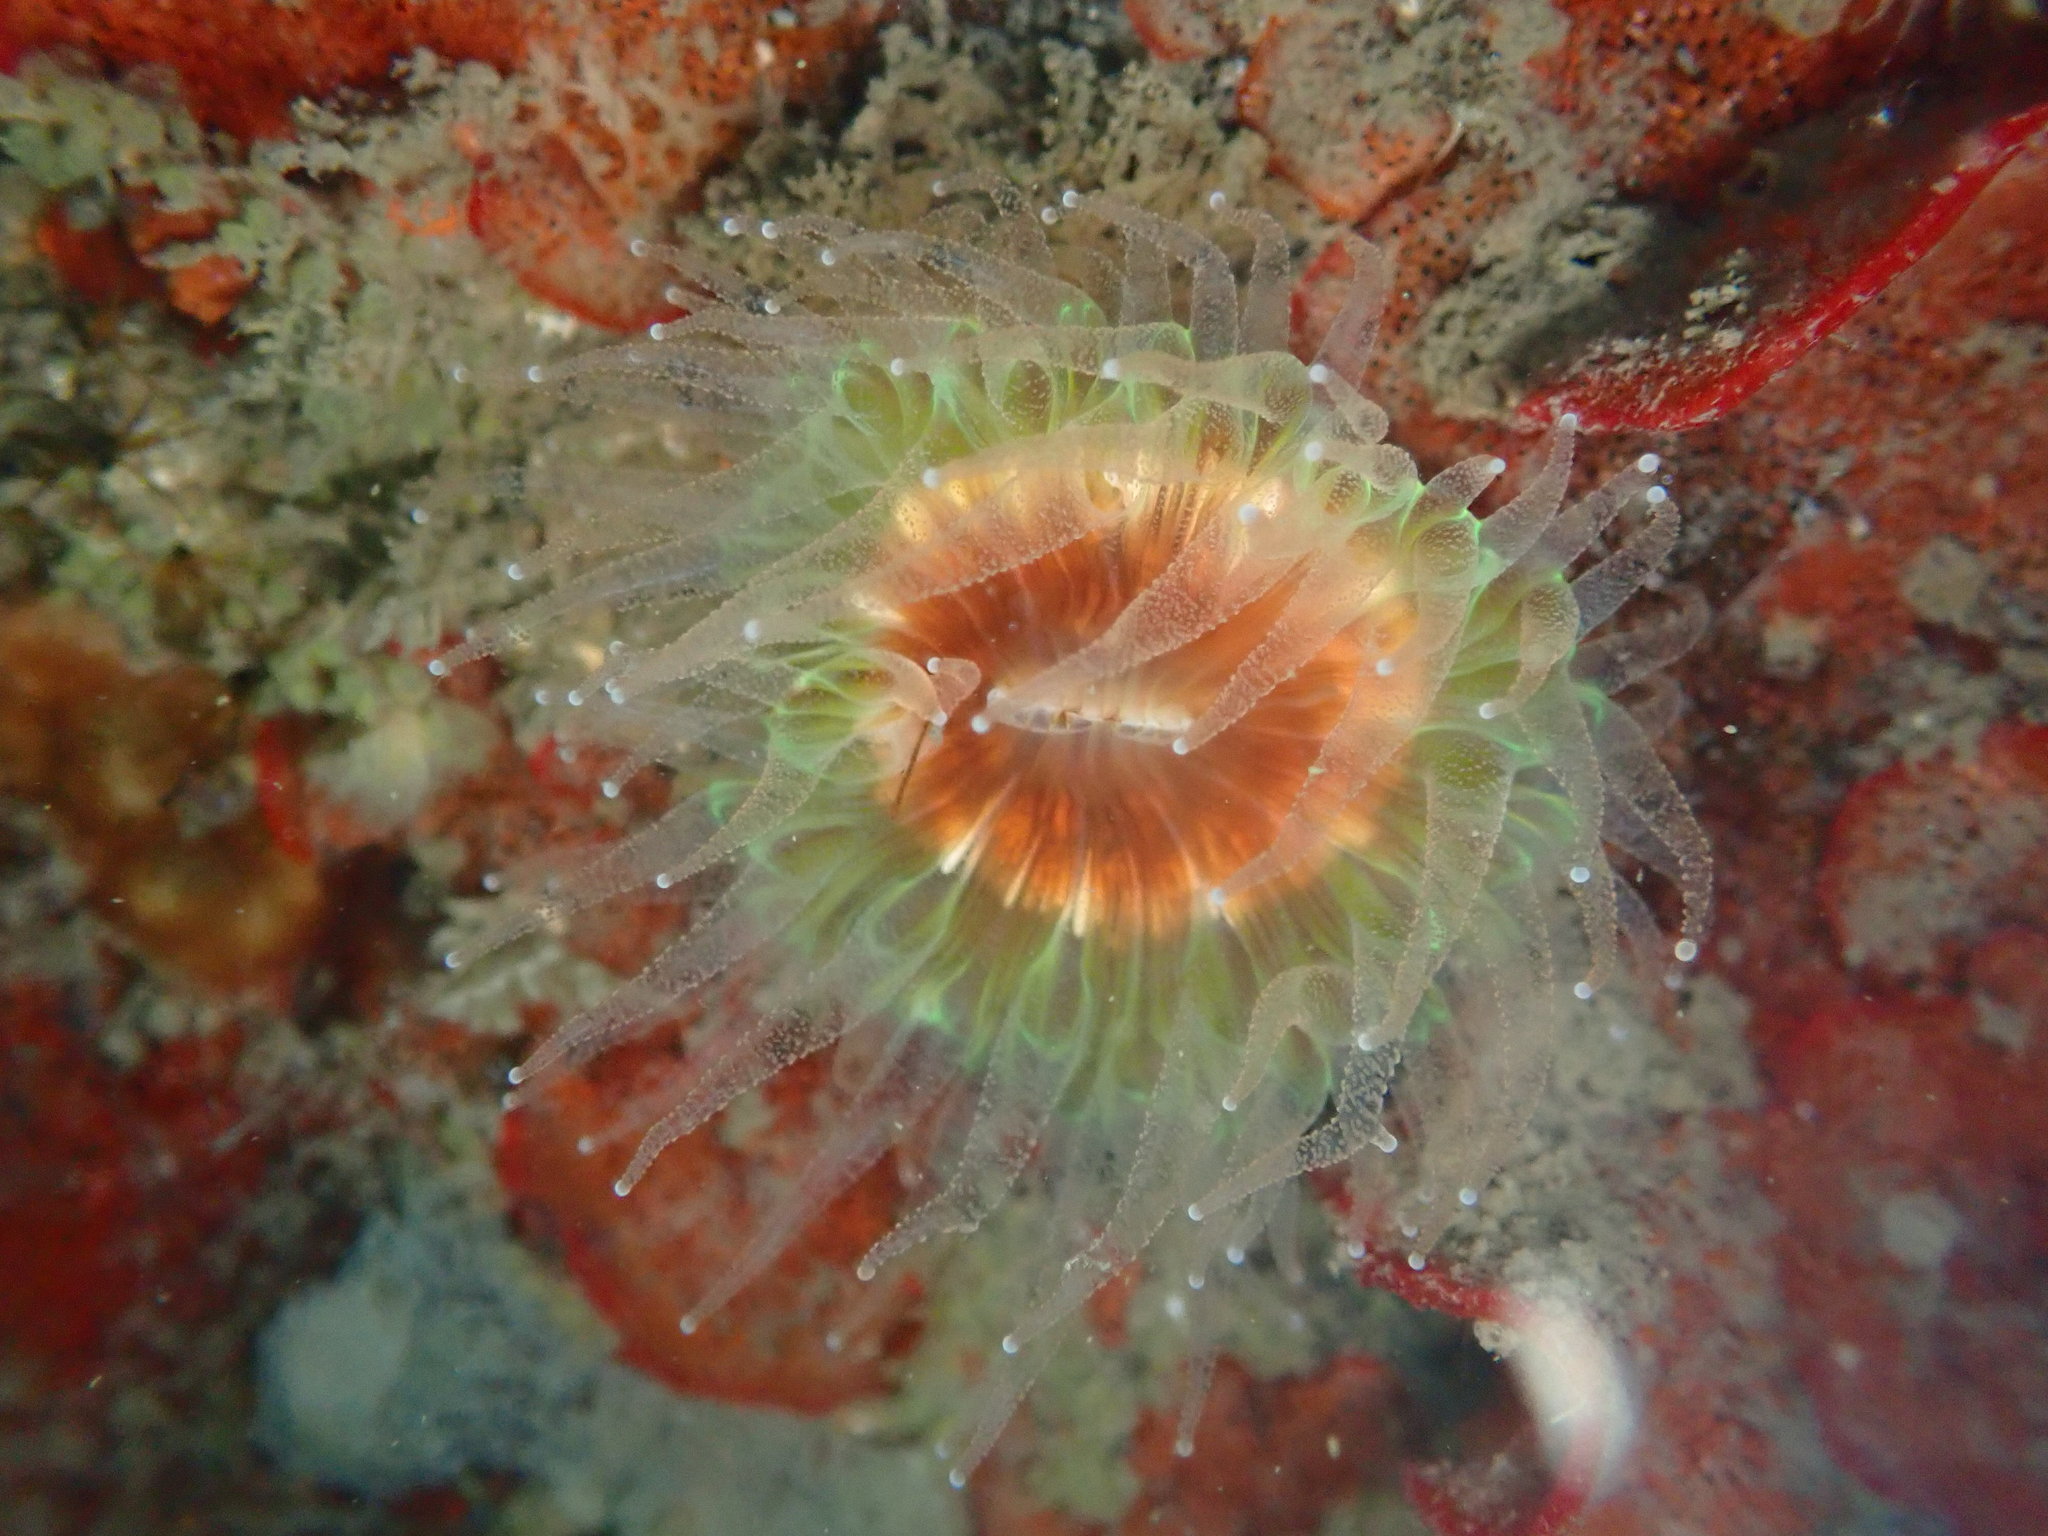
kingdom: Animalia
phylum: Cnidaria
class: Anthozoa
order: Scleractinia
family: Caryophylliidae
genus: Paracyathus
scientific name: Paracyathus stearnsii
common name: Brown stony coral
